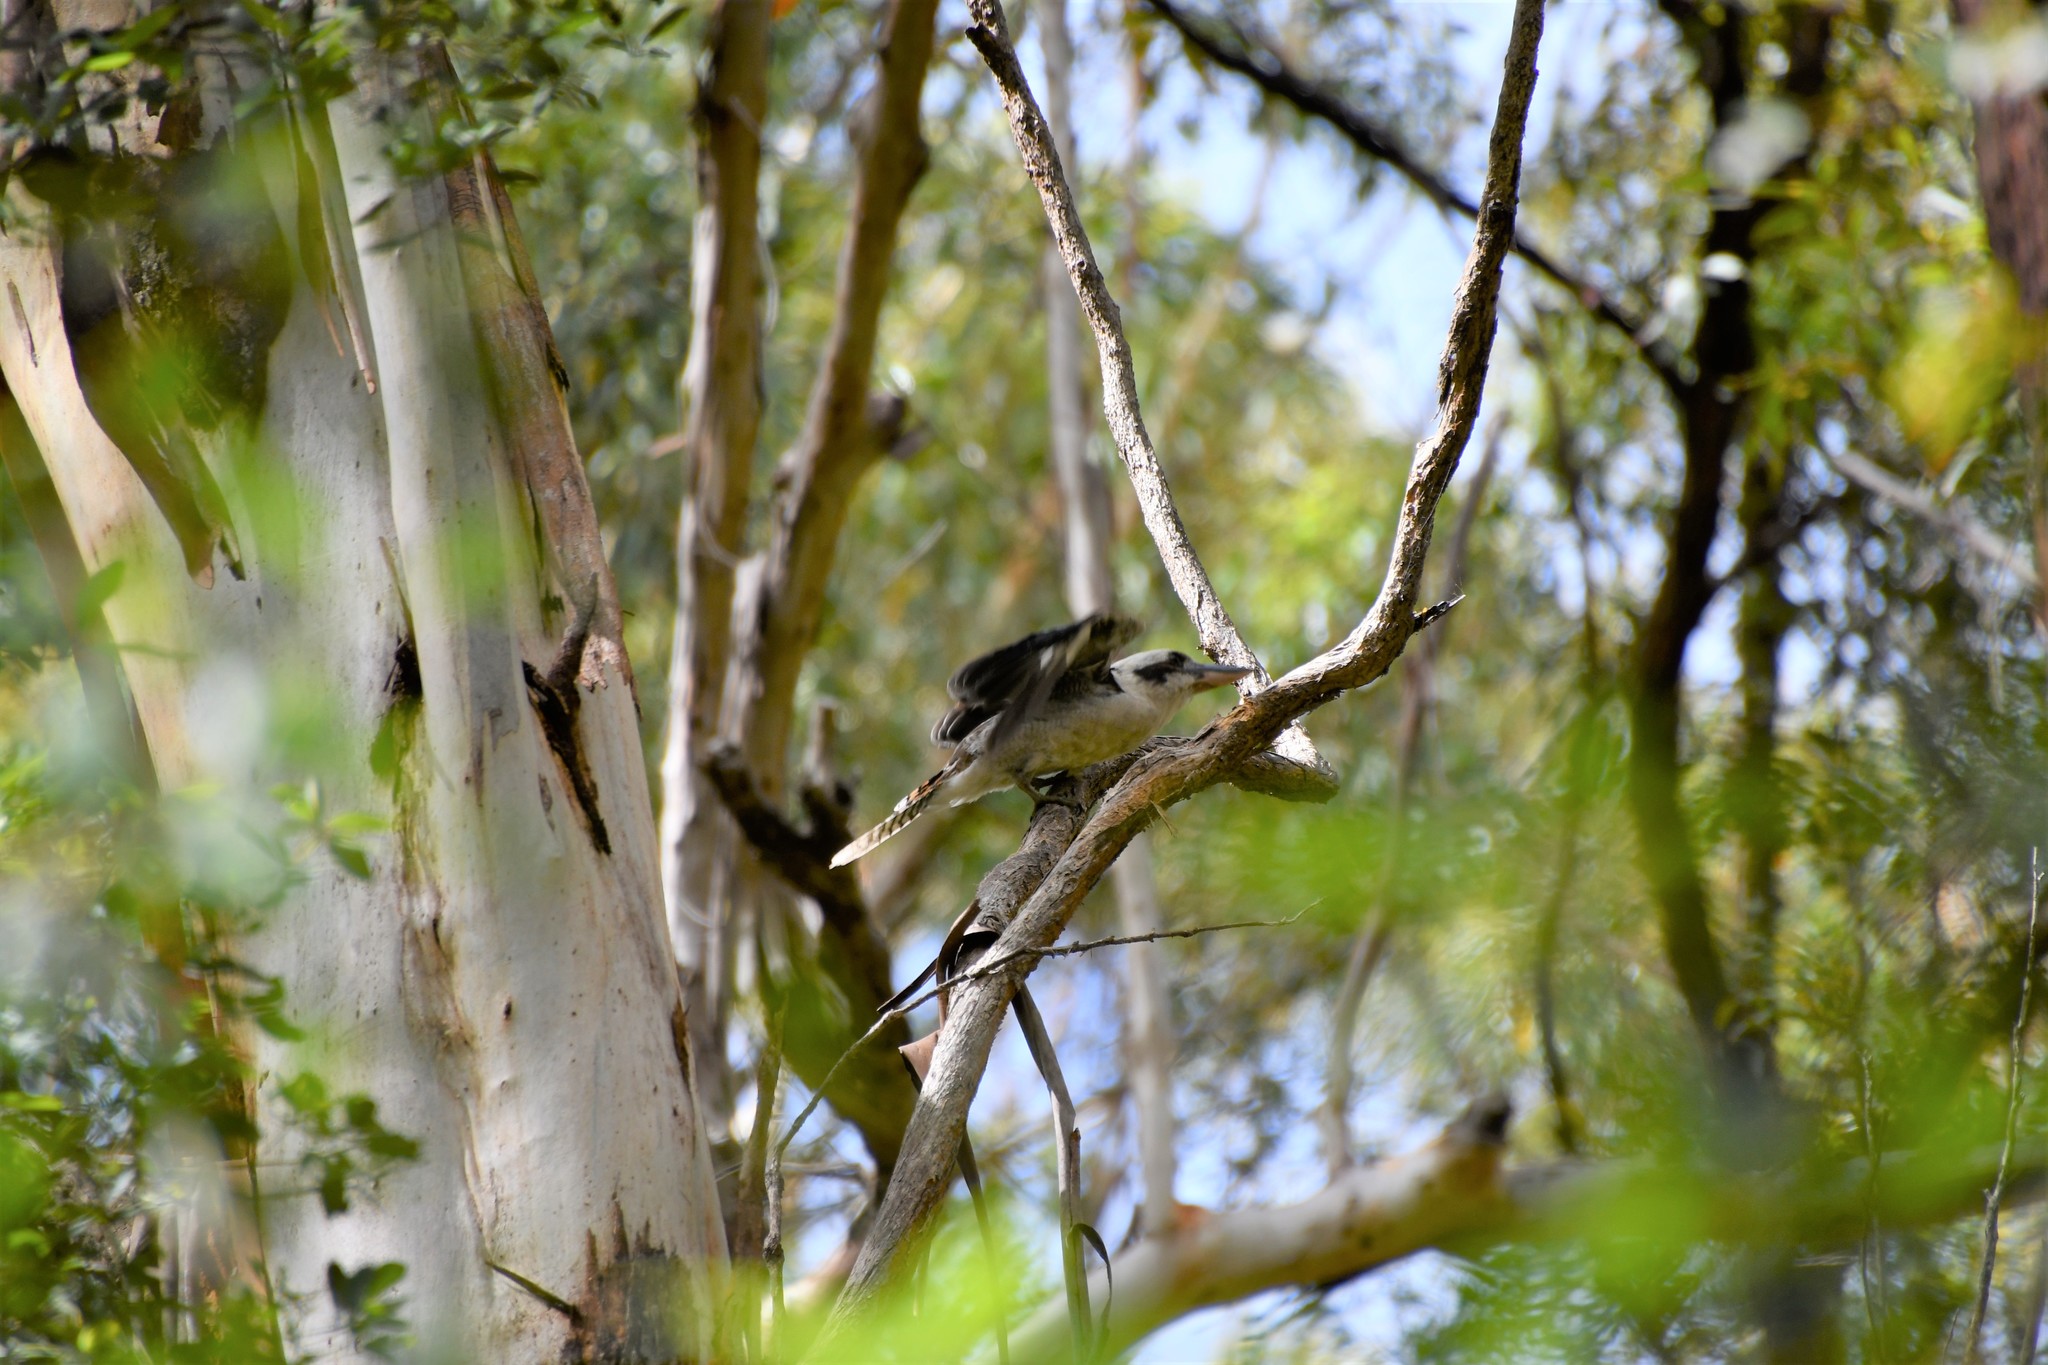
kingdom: Animalia
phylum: Chordata
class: Aves
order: Coraciiformes
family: Alcedinidae
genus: Dacelo
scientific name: Dacelo novaeguineae
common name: Laughing kookaburra
